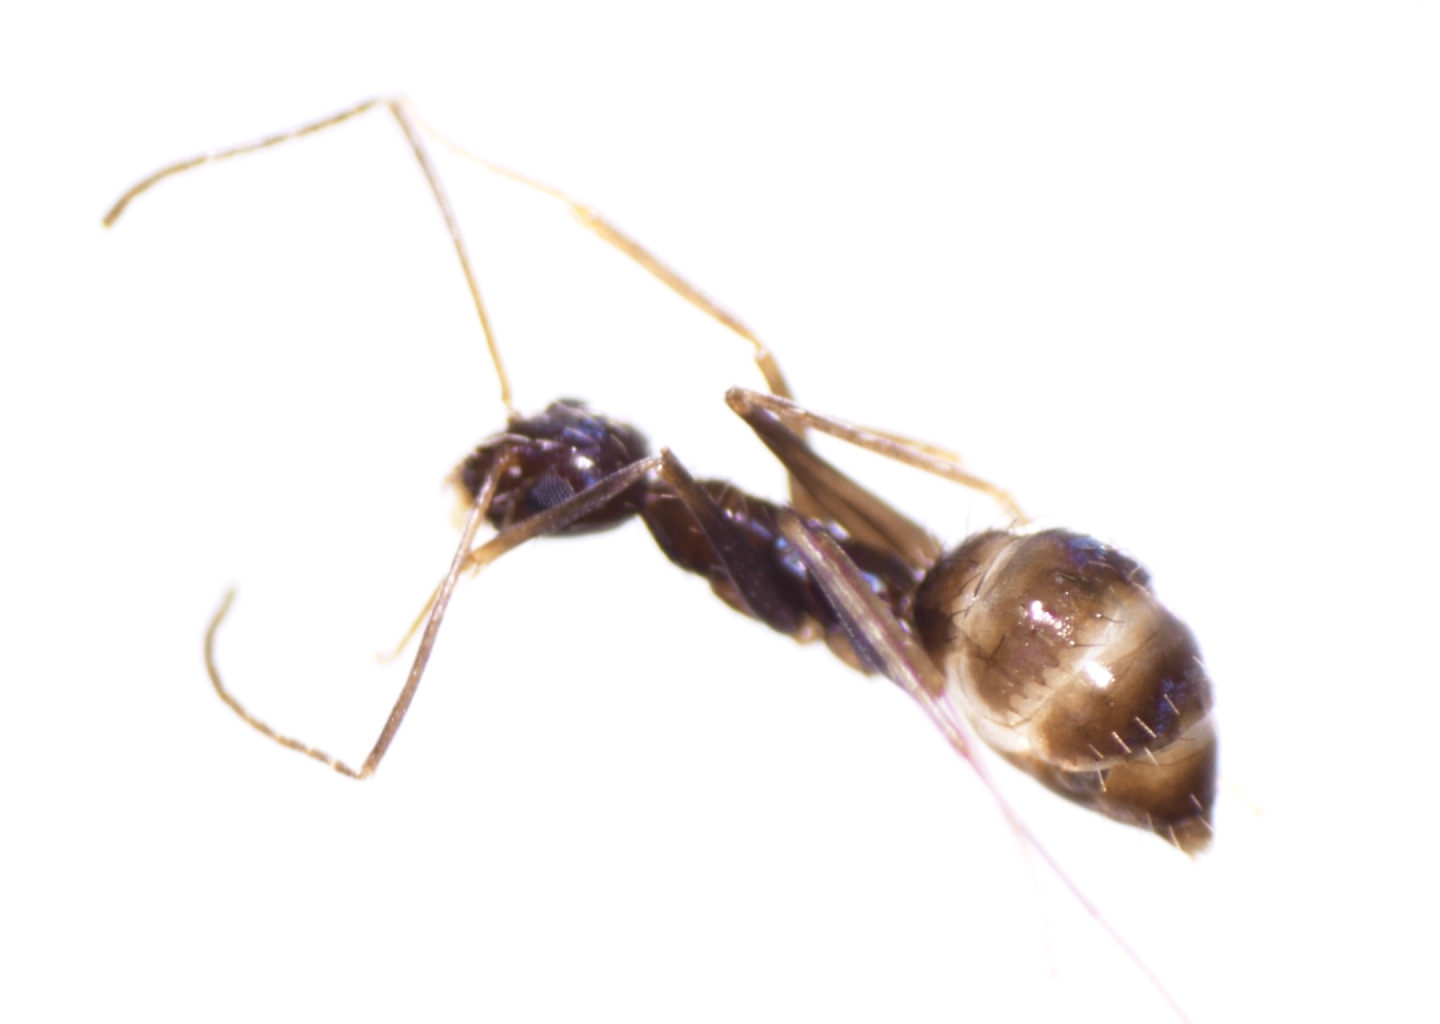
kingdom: Animalia
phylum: Arthropoda
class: Insecta
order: Hymenoptera
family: Formicidae
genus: Paratrechina
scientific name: Paratrechina longicornis
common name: Longhorned crazy ant
